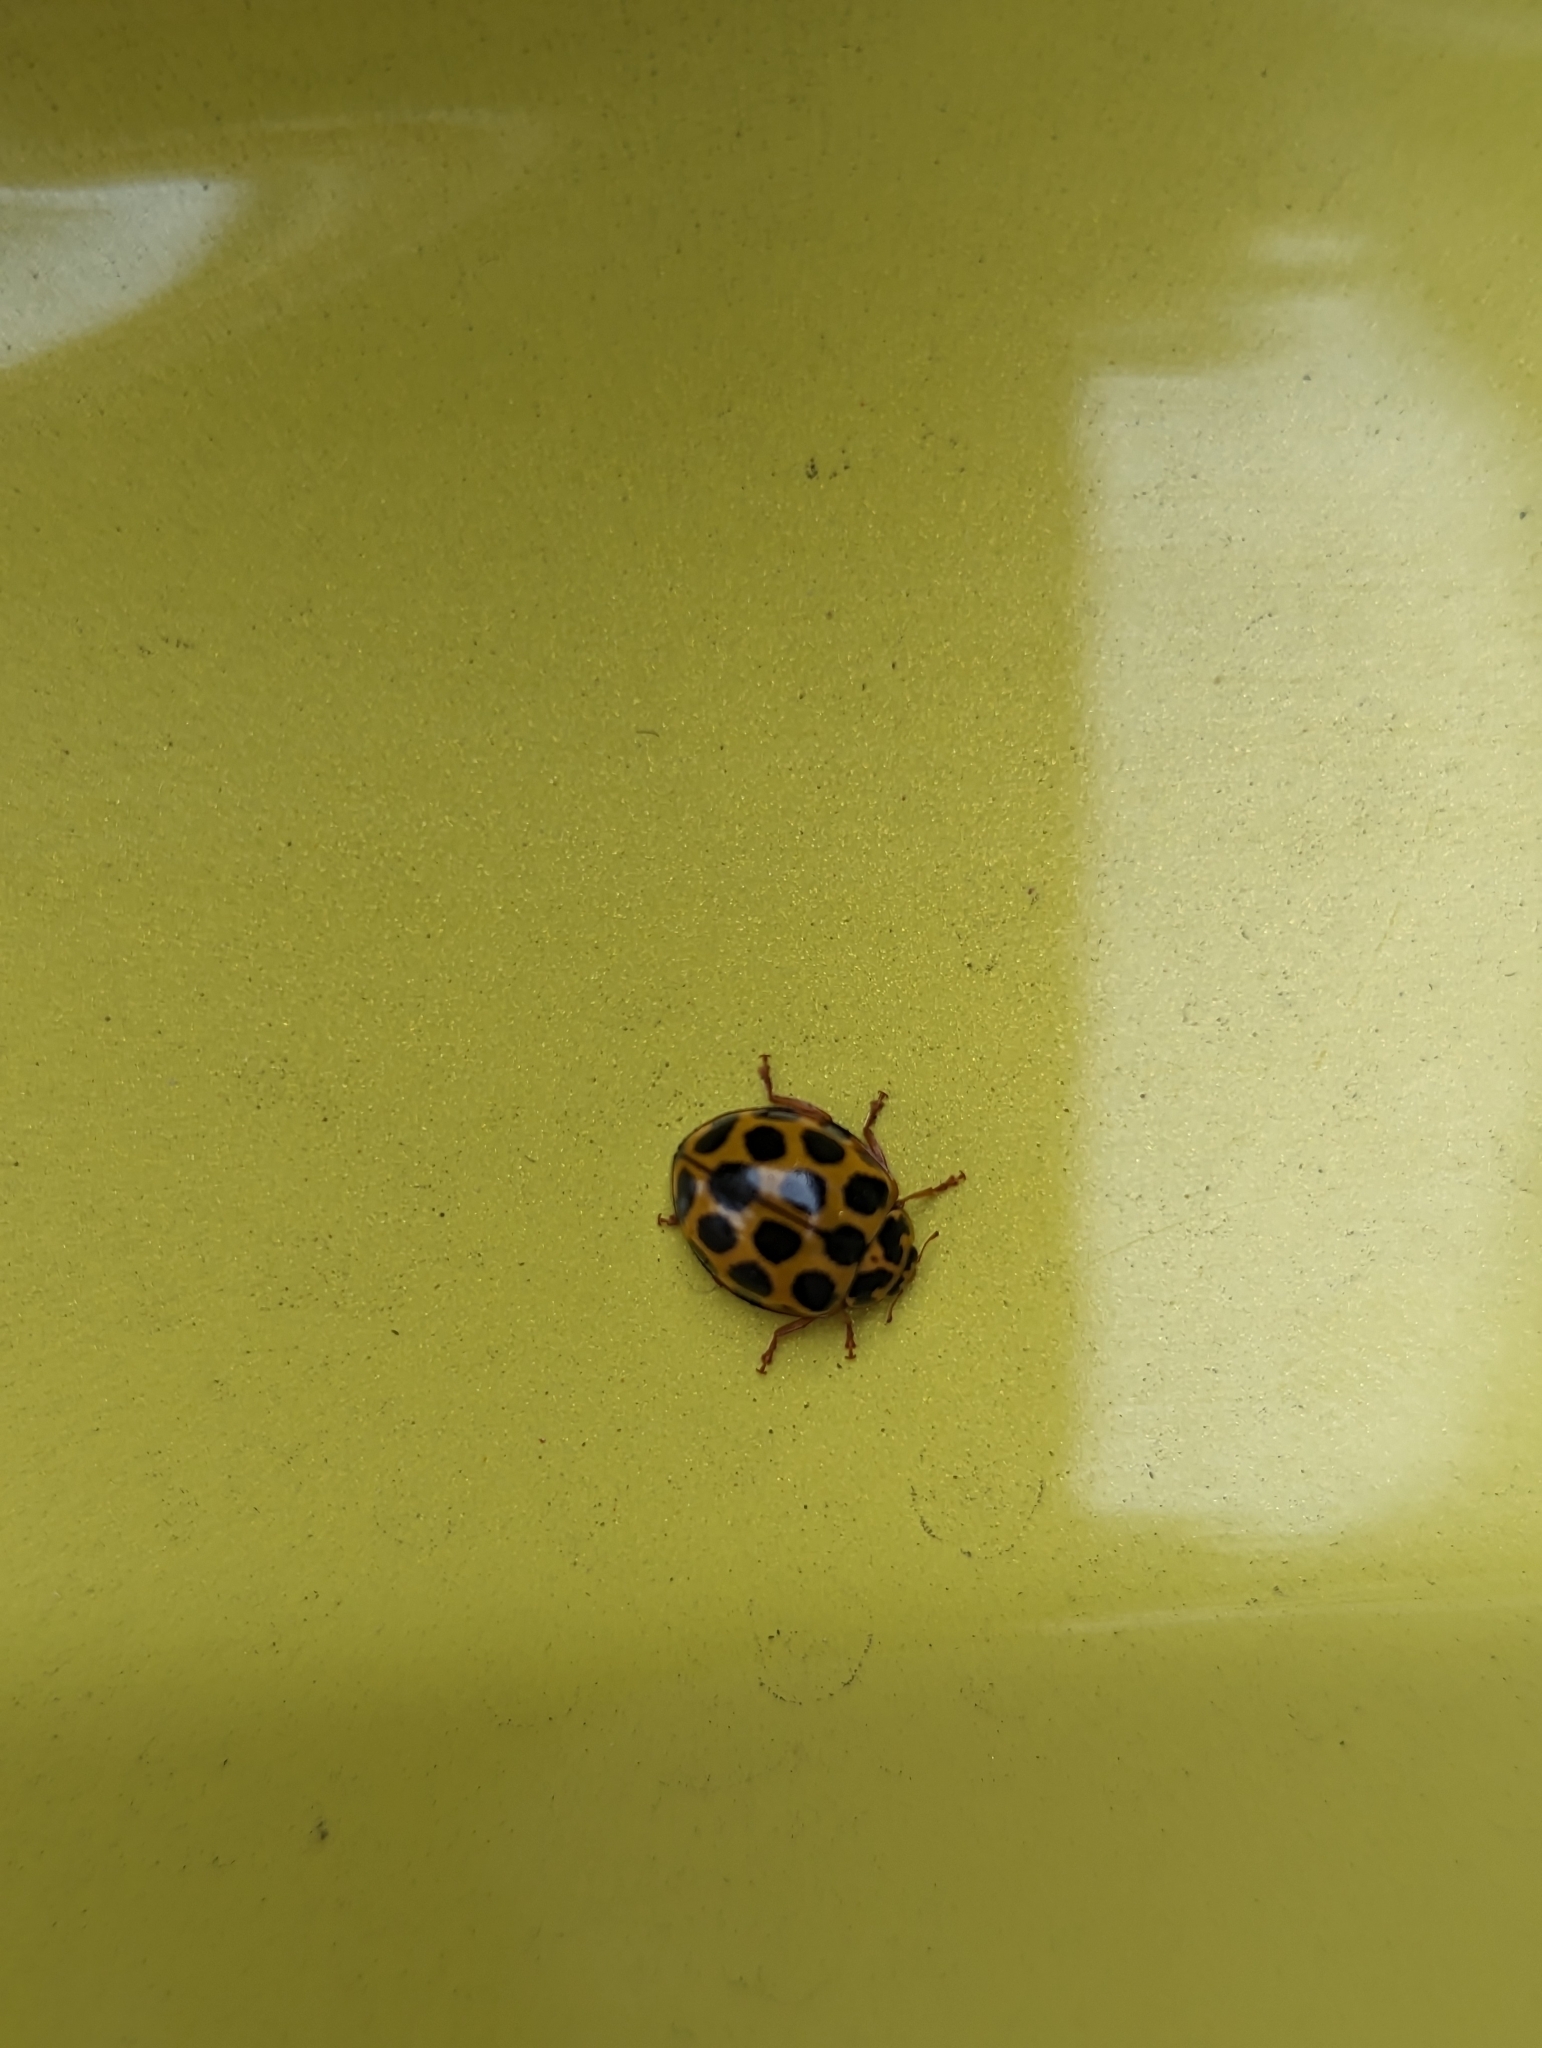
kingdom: Animalia
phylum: Arthropoda
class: Insecta
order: Coleoptera
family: Coccinellidae
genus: Harmonia
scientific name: Harmonia conformis
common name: Common spotted ladybird beetle
